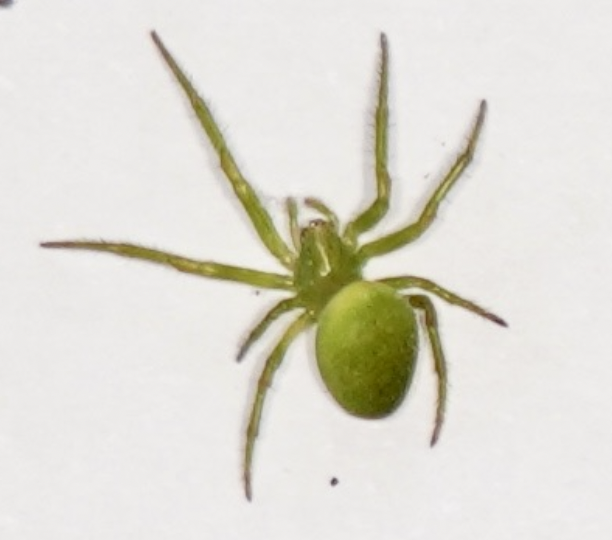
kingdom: Animalia
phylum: Arthropoda
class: Arachnida
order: Araneae
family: Araneidae
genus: Colaranea
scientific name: Colaranea viriditas
